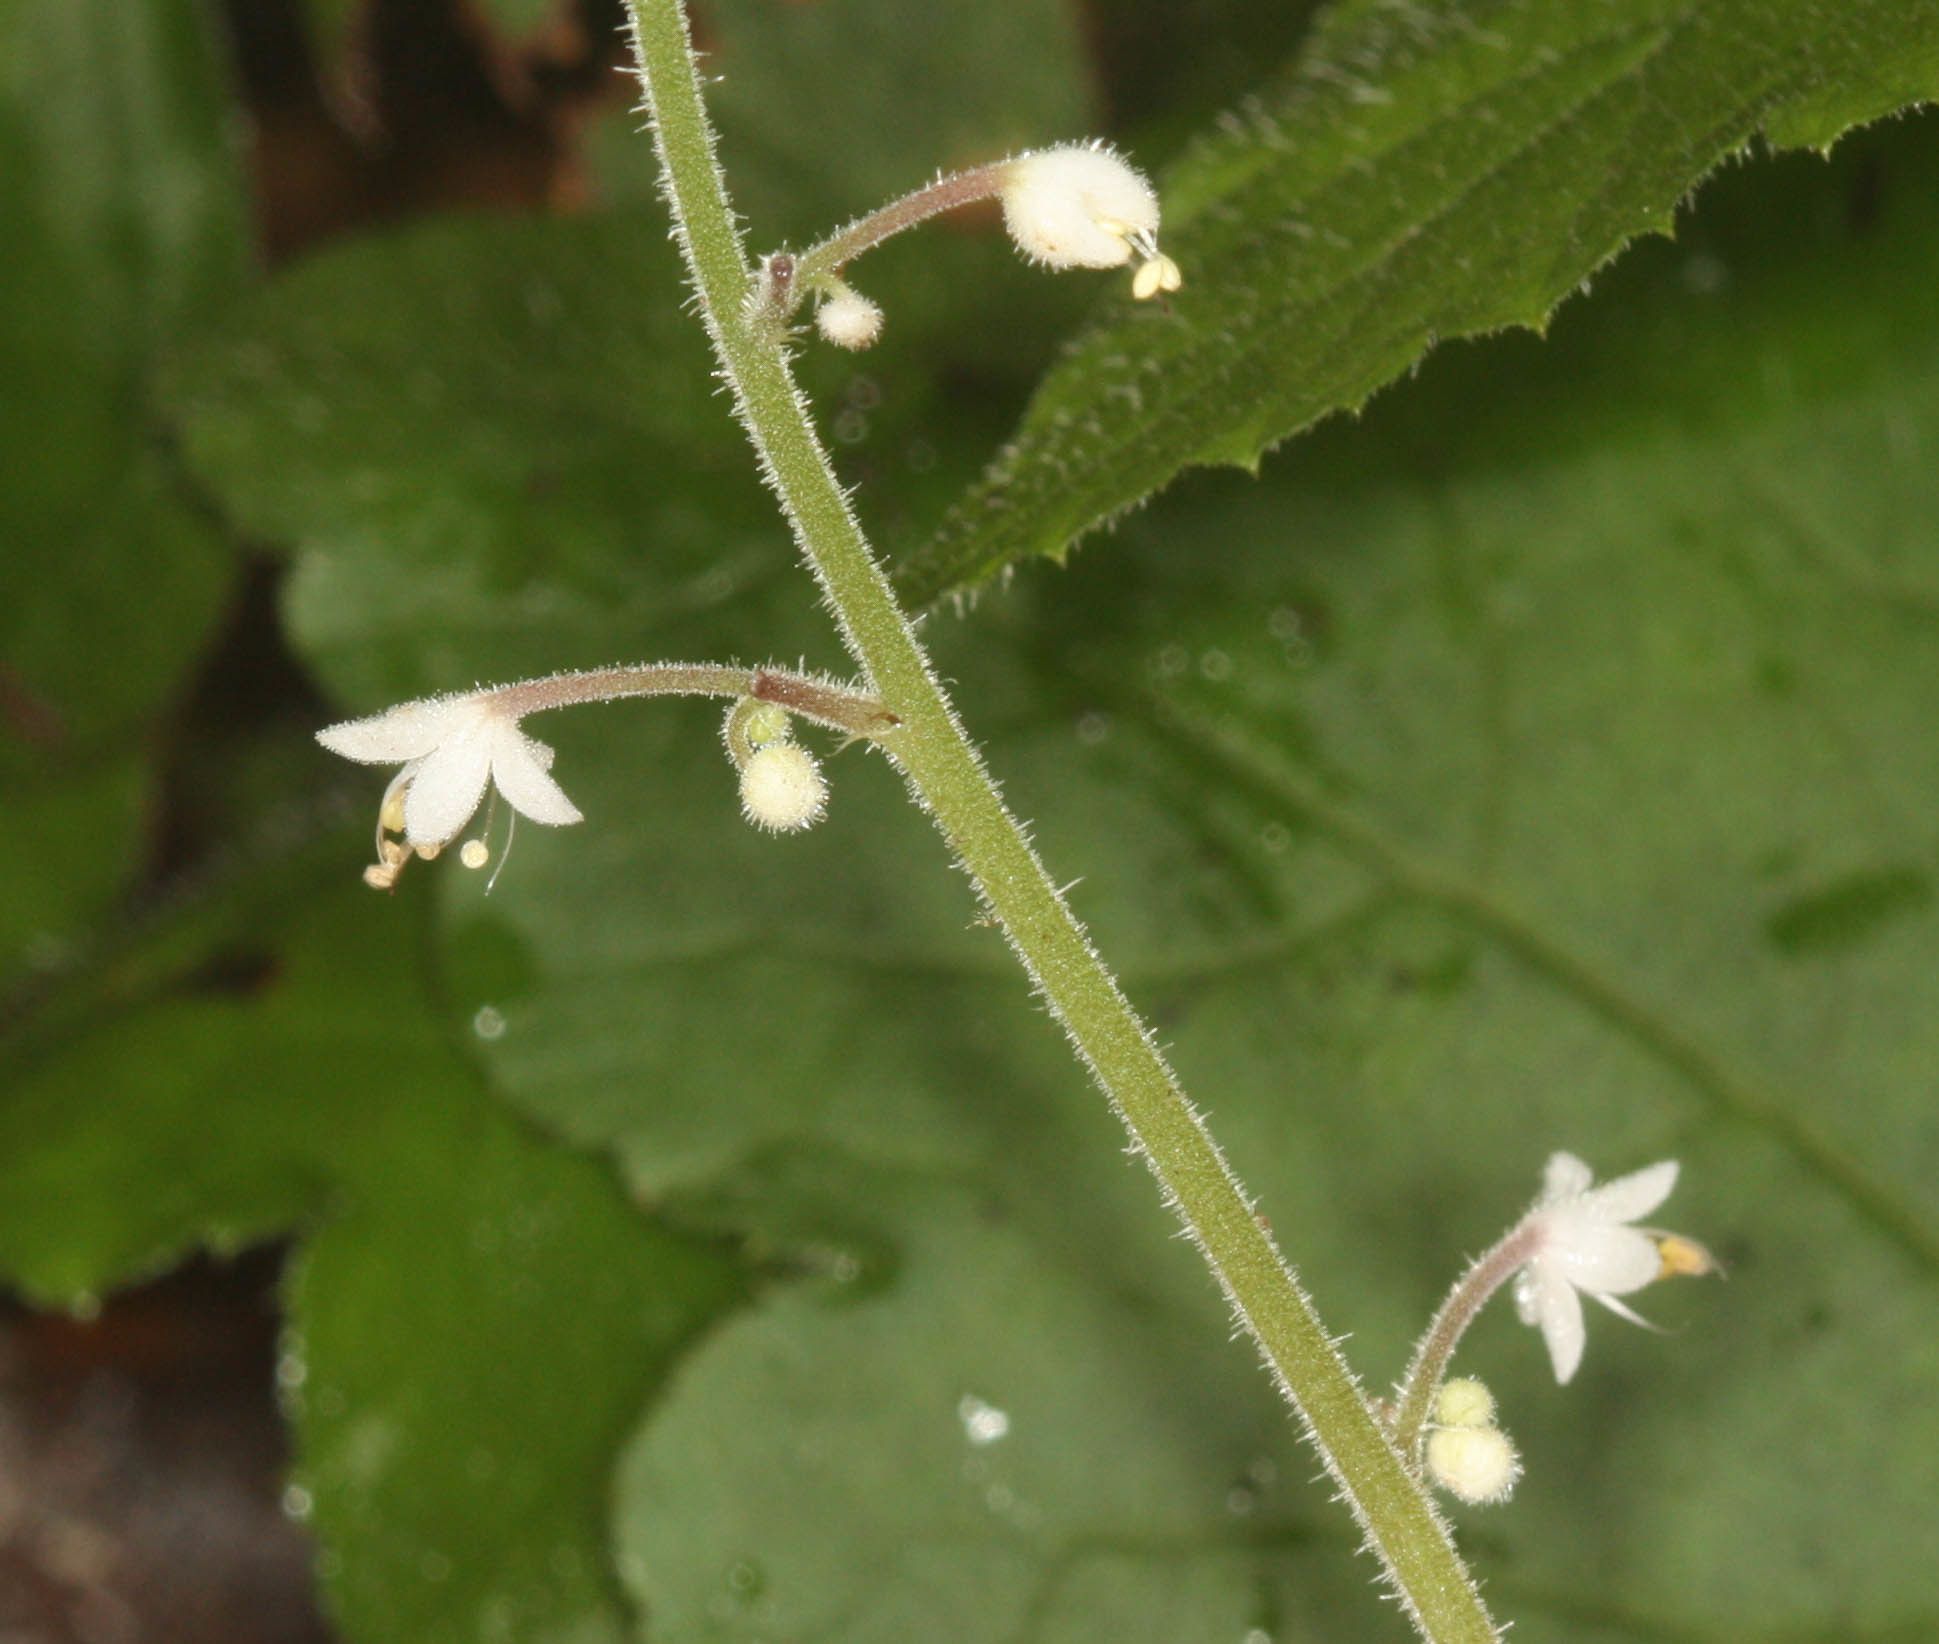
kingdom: Plantae
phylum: Tracheophyta
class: Magnoliopsida
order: Saxifragales
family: Saxifragaceae
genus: Tiarella
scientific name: Tiarella trifoliata
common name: Sugar-scoop
